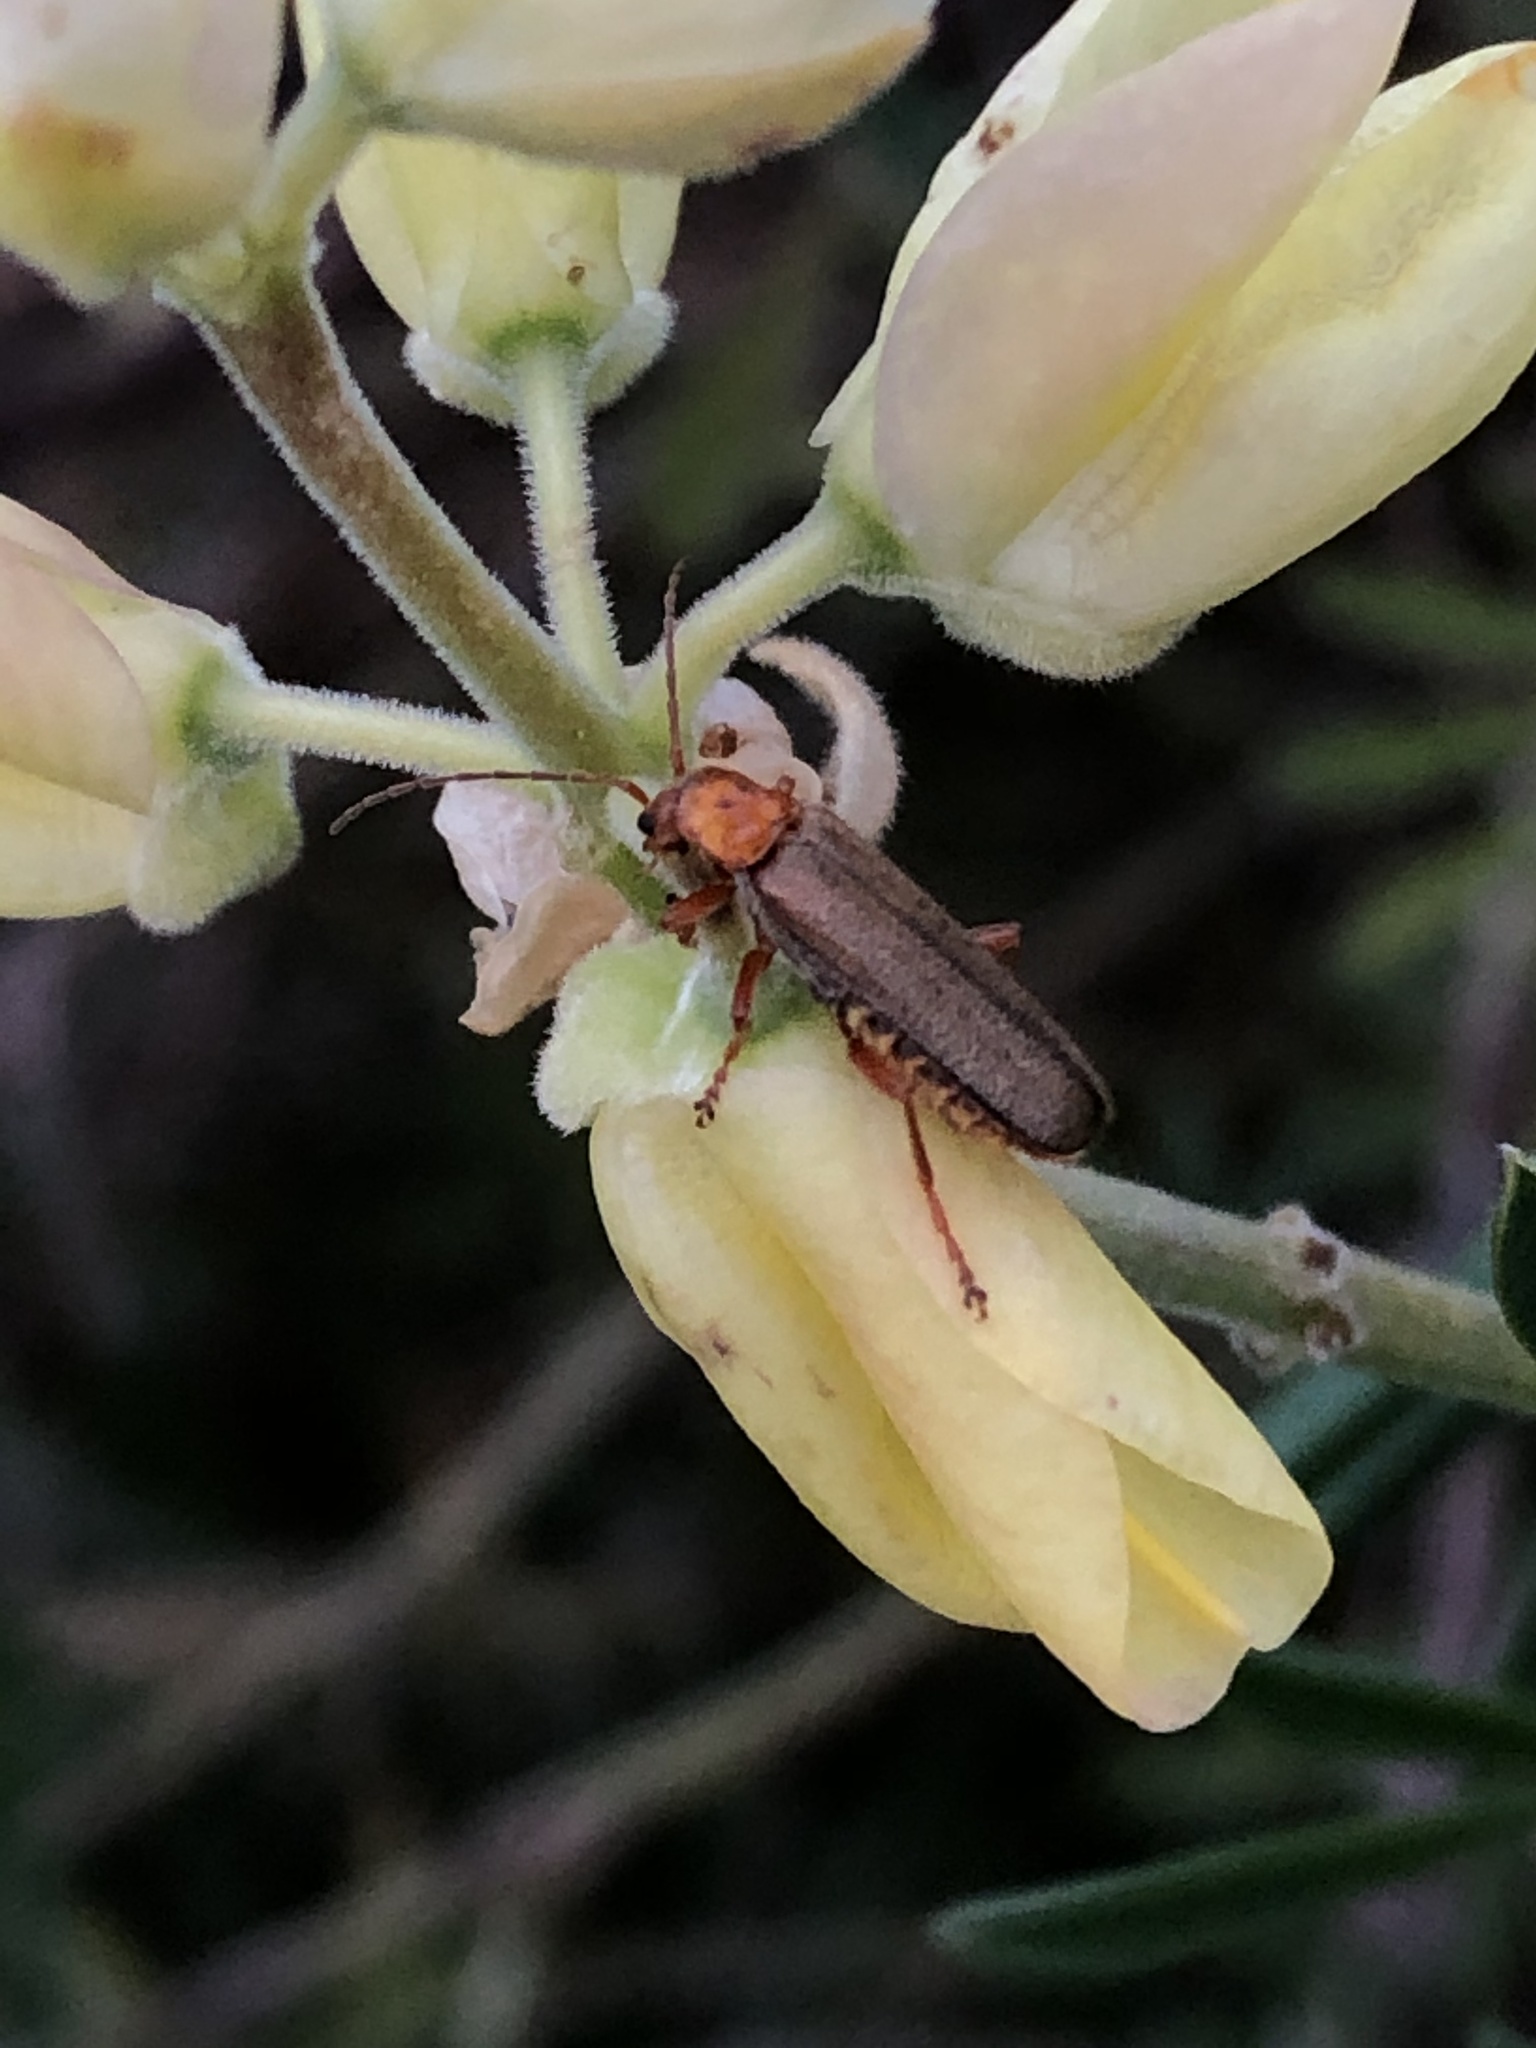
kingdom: Animalia
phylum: Arthropoda
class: Insecta
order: Coleoptera
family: Cantharidae
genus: Cultellunguis
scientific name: Cultellunguis larvalis
